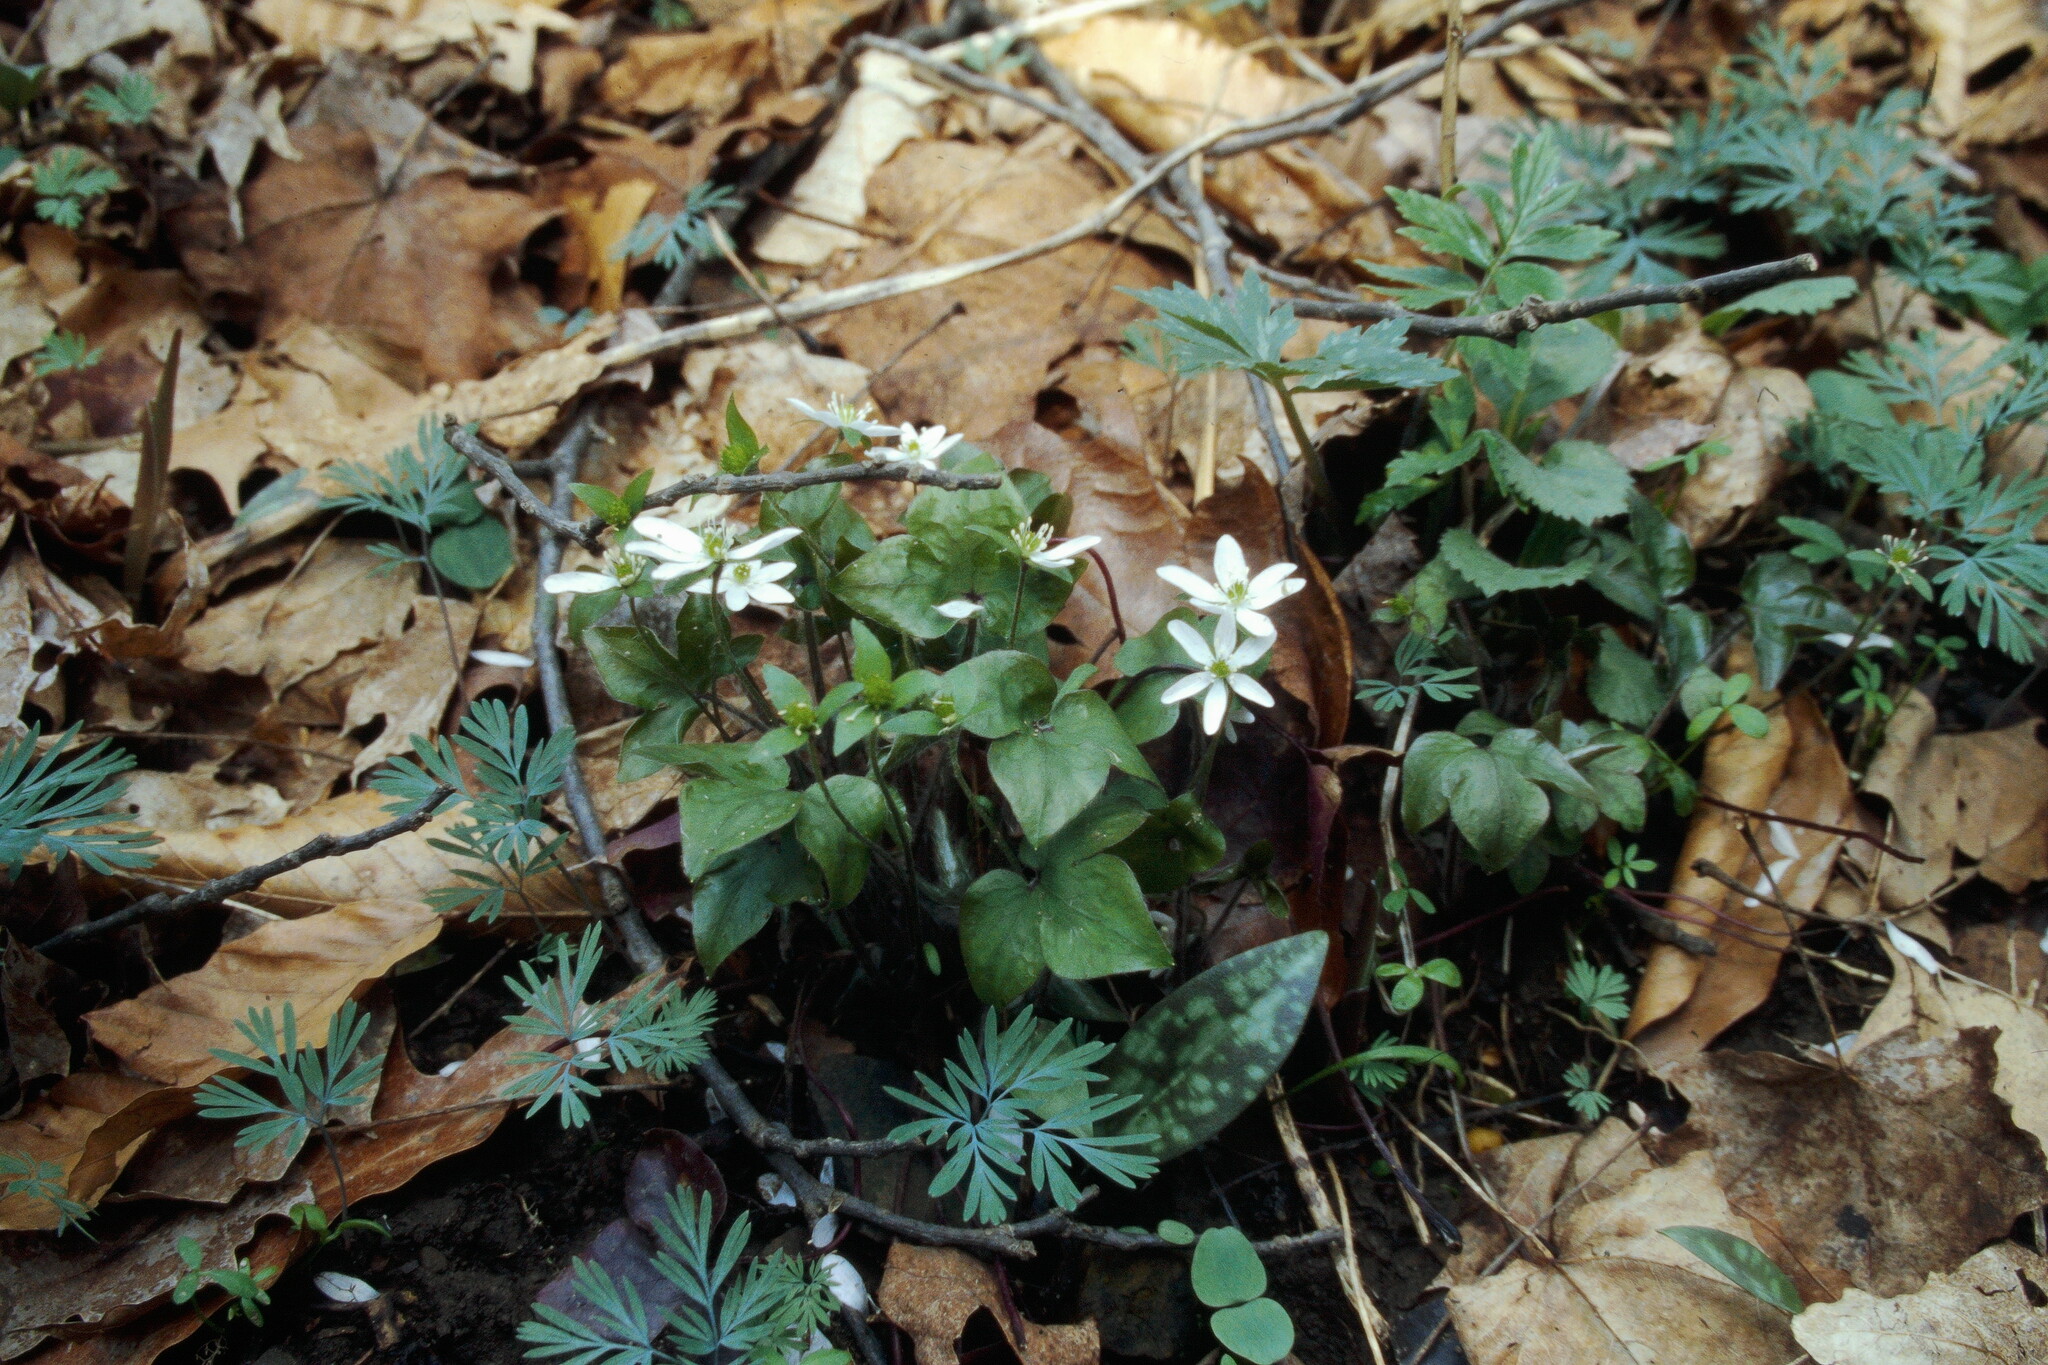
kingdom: Plantae
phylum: Tracheophyta
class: Magnoliopsida
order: Ranunculales
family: Ranunculaceae
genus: Hepatica
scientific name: Hepatica acutiloba
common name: Sharp-lobed hepatica
